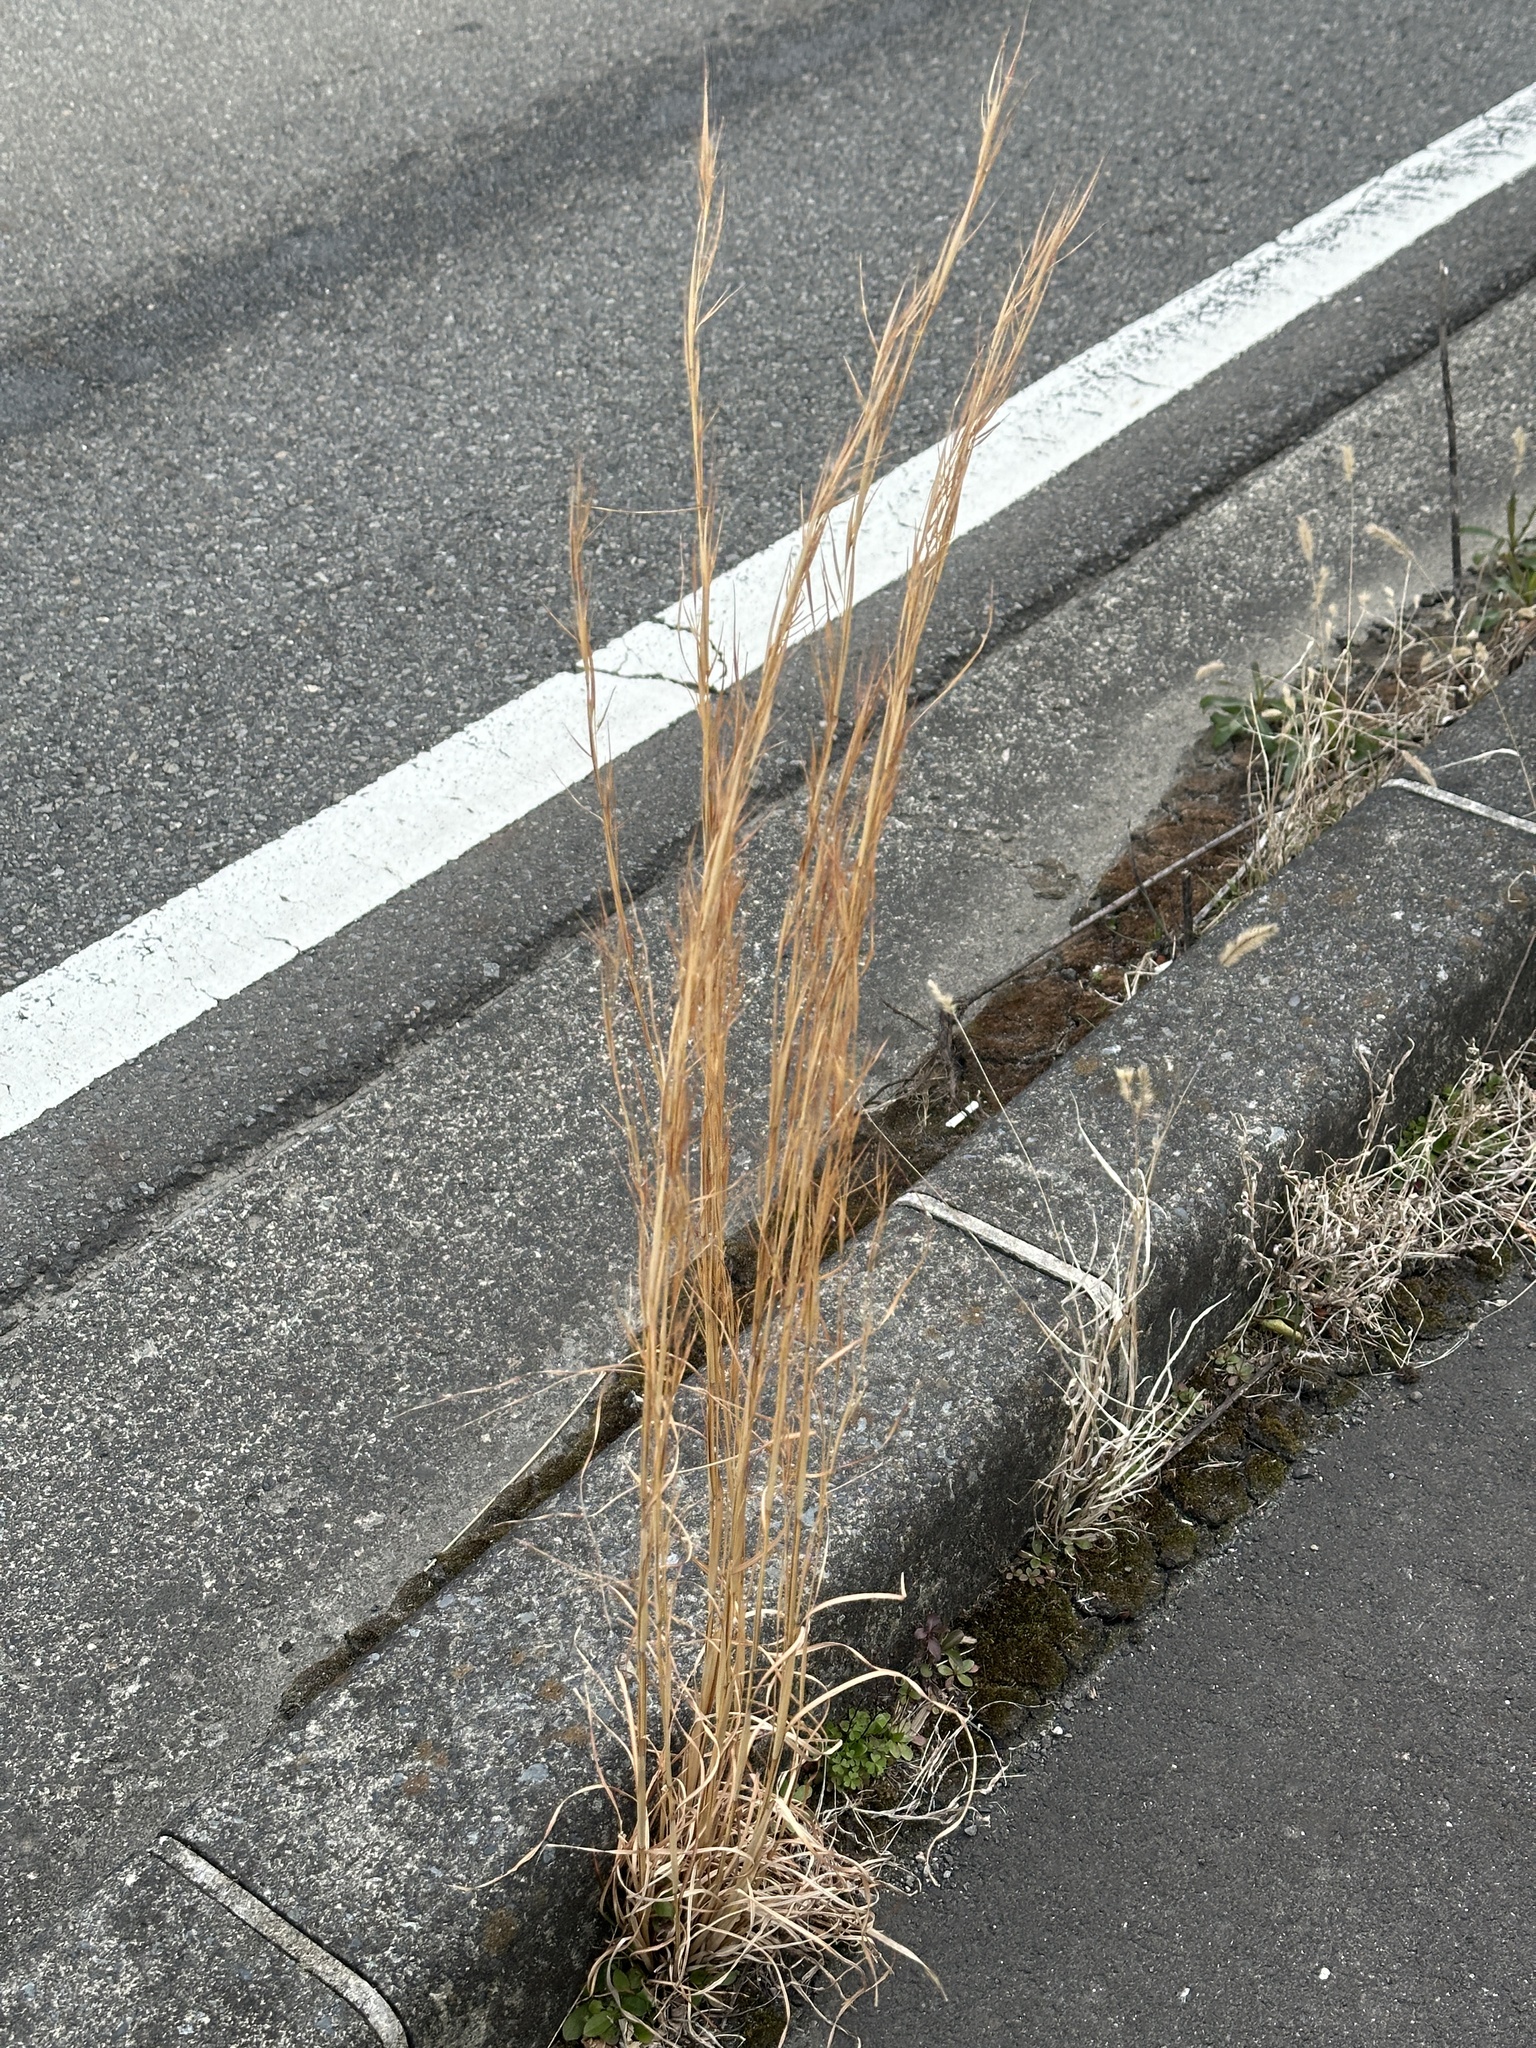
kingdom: Plantae
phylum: Tracheophyta
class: Liliopsida
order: Poales
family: Poaceae
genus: Andropogon
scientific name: Andropogon virginicus
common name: Broomsedge bluestem
